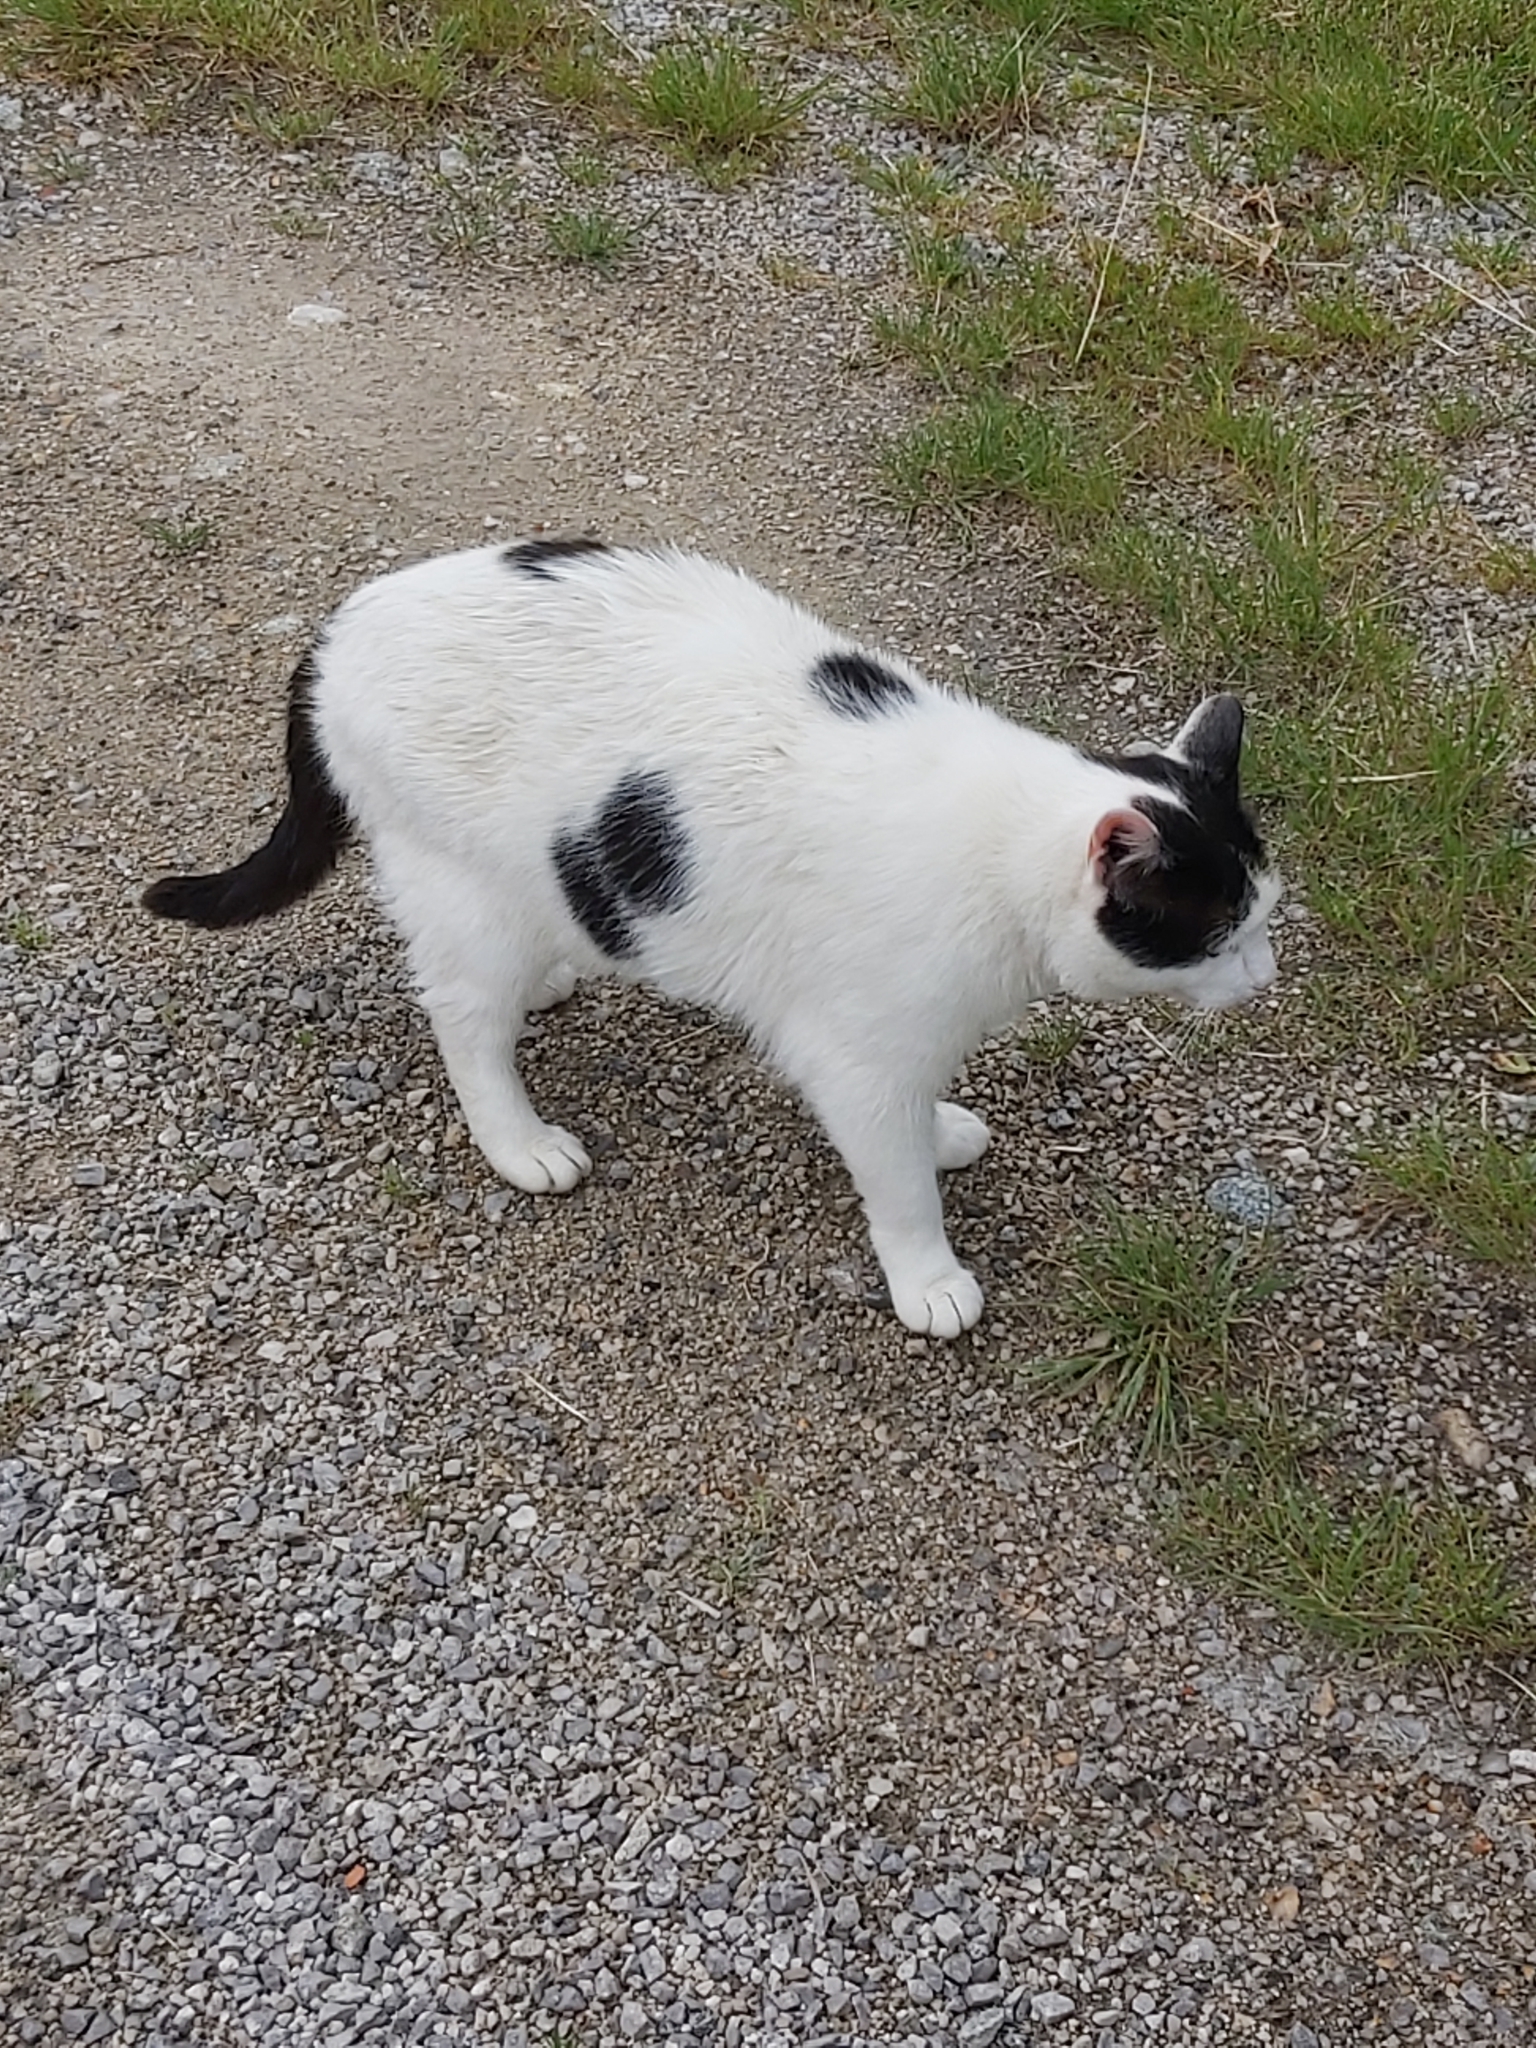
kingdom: Animalia
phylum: Chordata
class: Mammalia
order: Carnivora
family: Felidae
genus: Felis
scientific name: Felis catus
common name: Domestic cat
